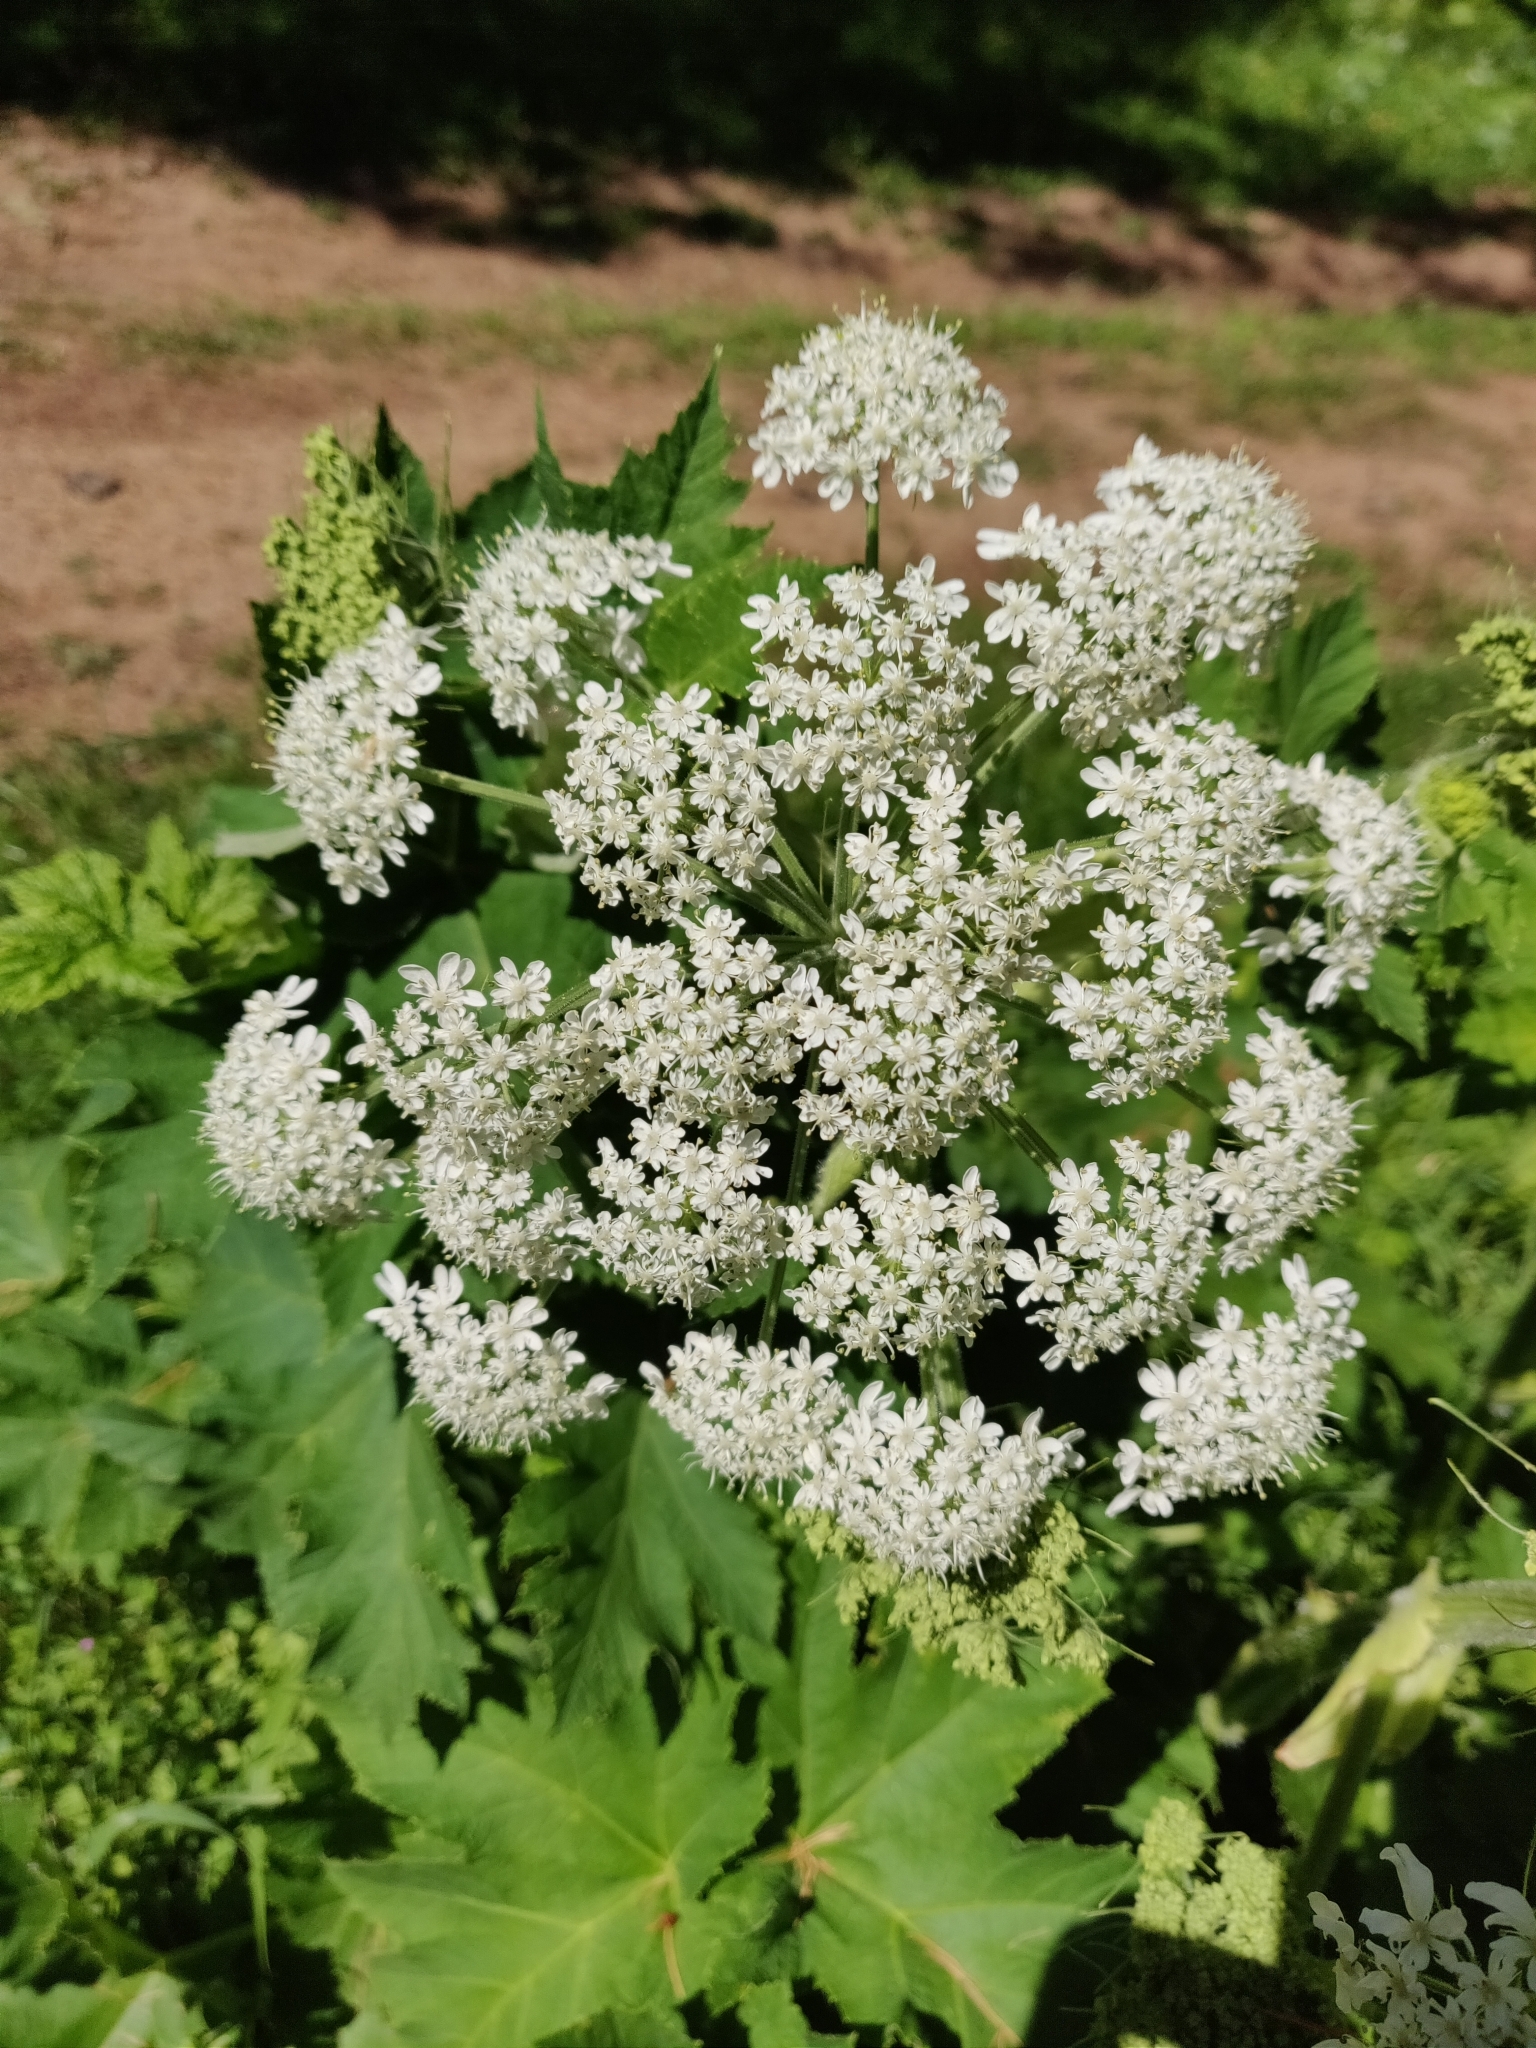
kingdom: Plantae
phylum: Tracheophyta
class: Magnoliopsida
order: Apiales
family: Apiaceae
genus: Heracleum
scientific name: Heracleum maximum
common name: American cow parsnip
